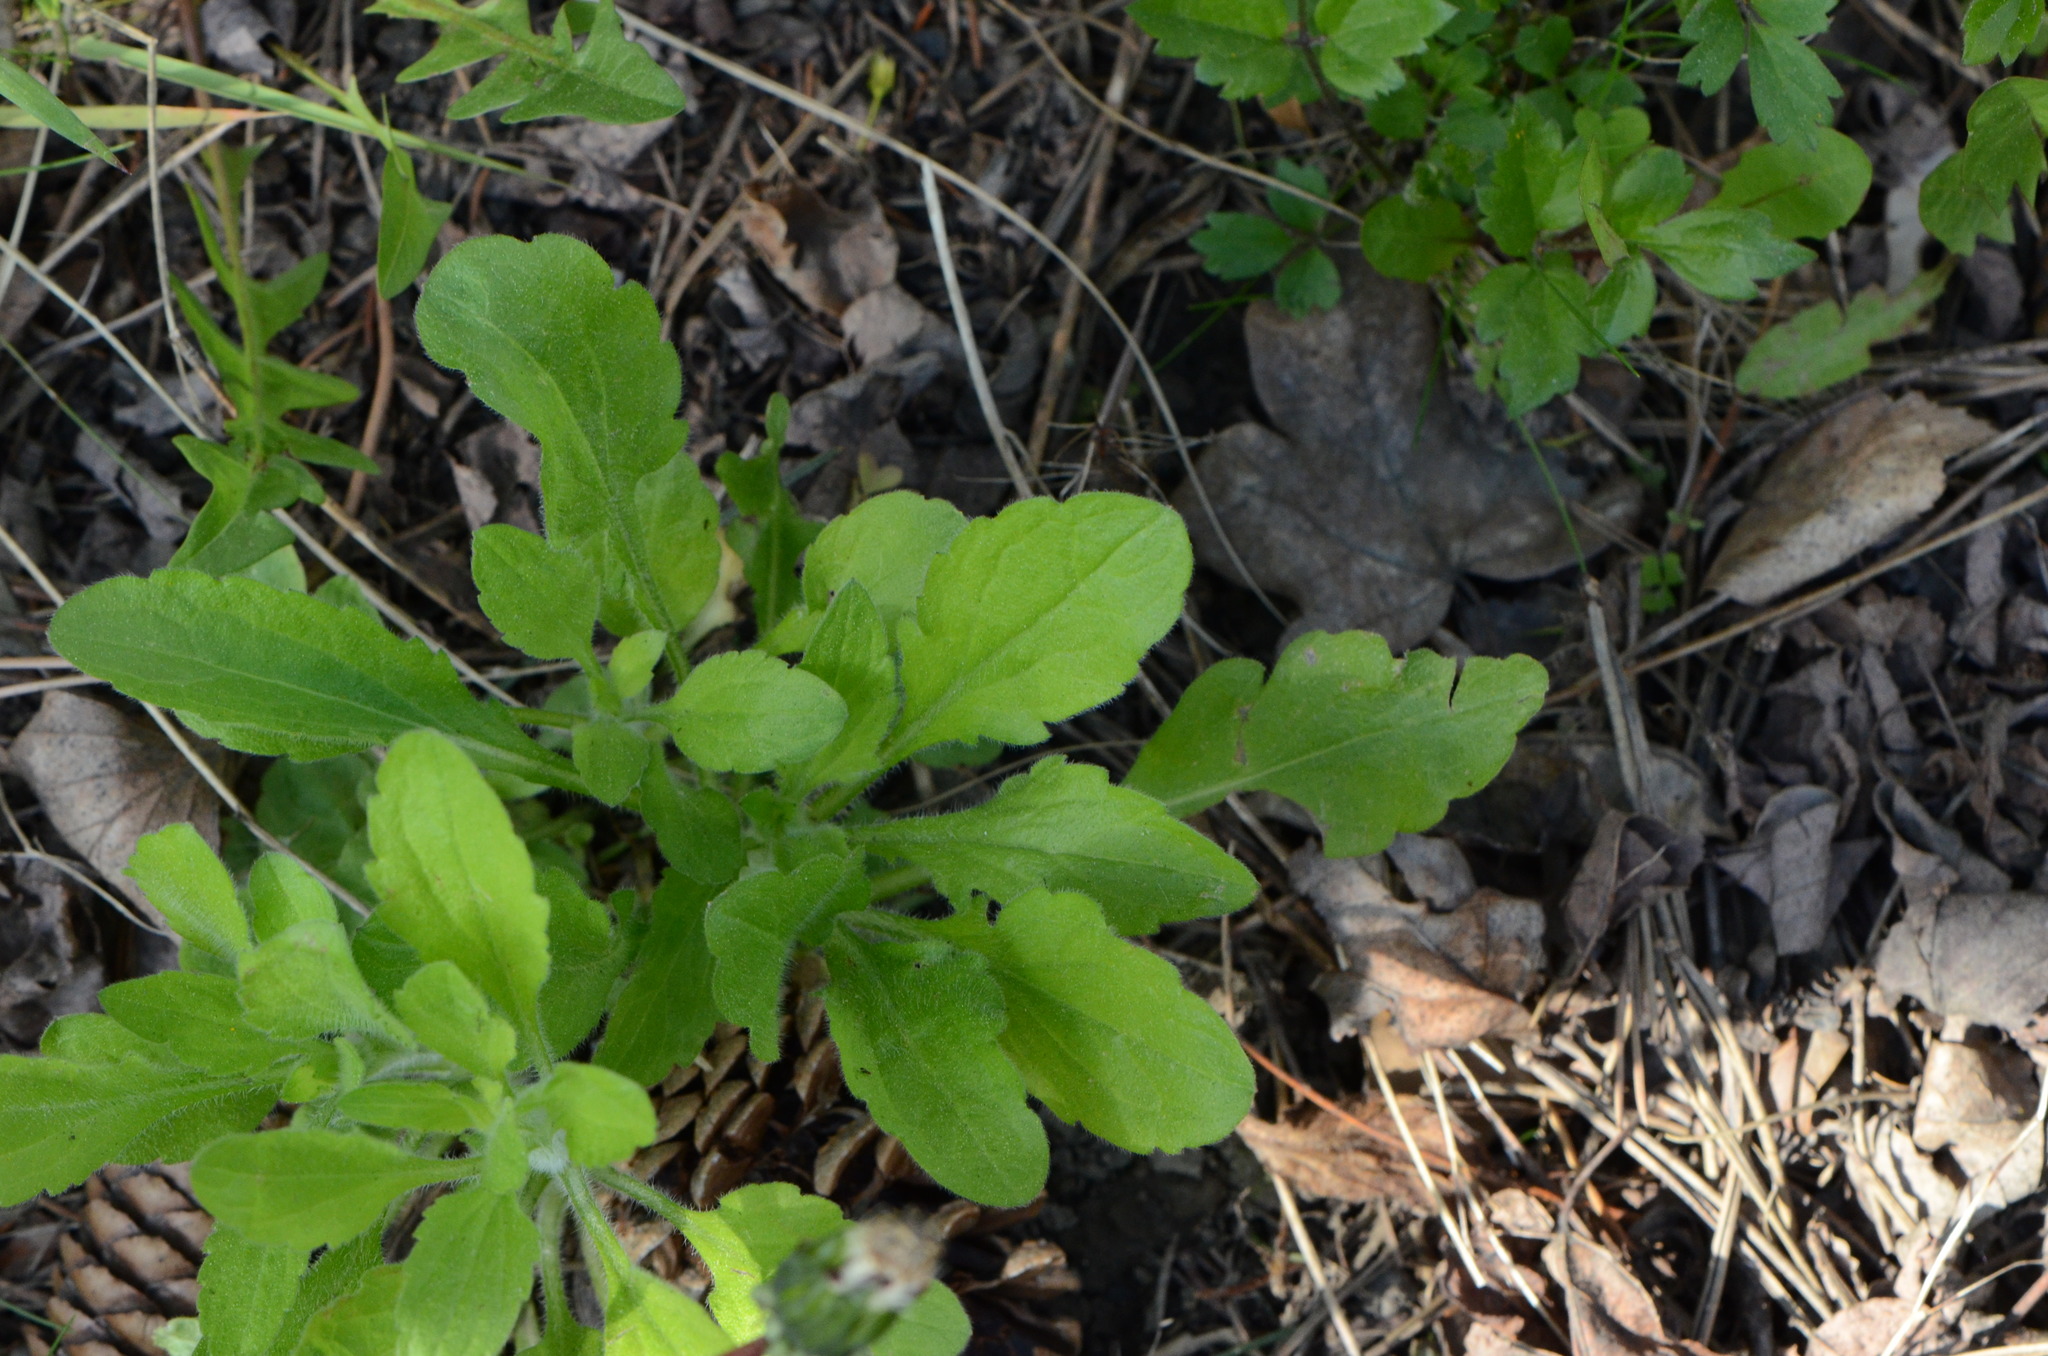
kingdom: Plantae
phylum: Tracheophyta
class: Magnoliopsida
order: Asterales
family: Asteraceae
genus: Erigeron
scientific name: Erigeron annuus
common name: Tall fleabane
